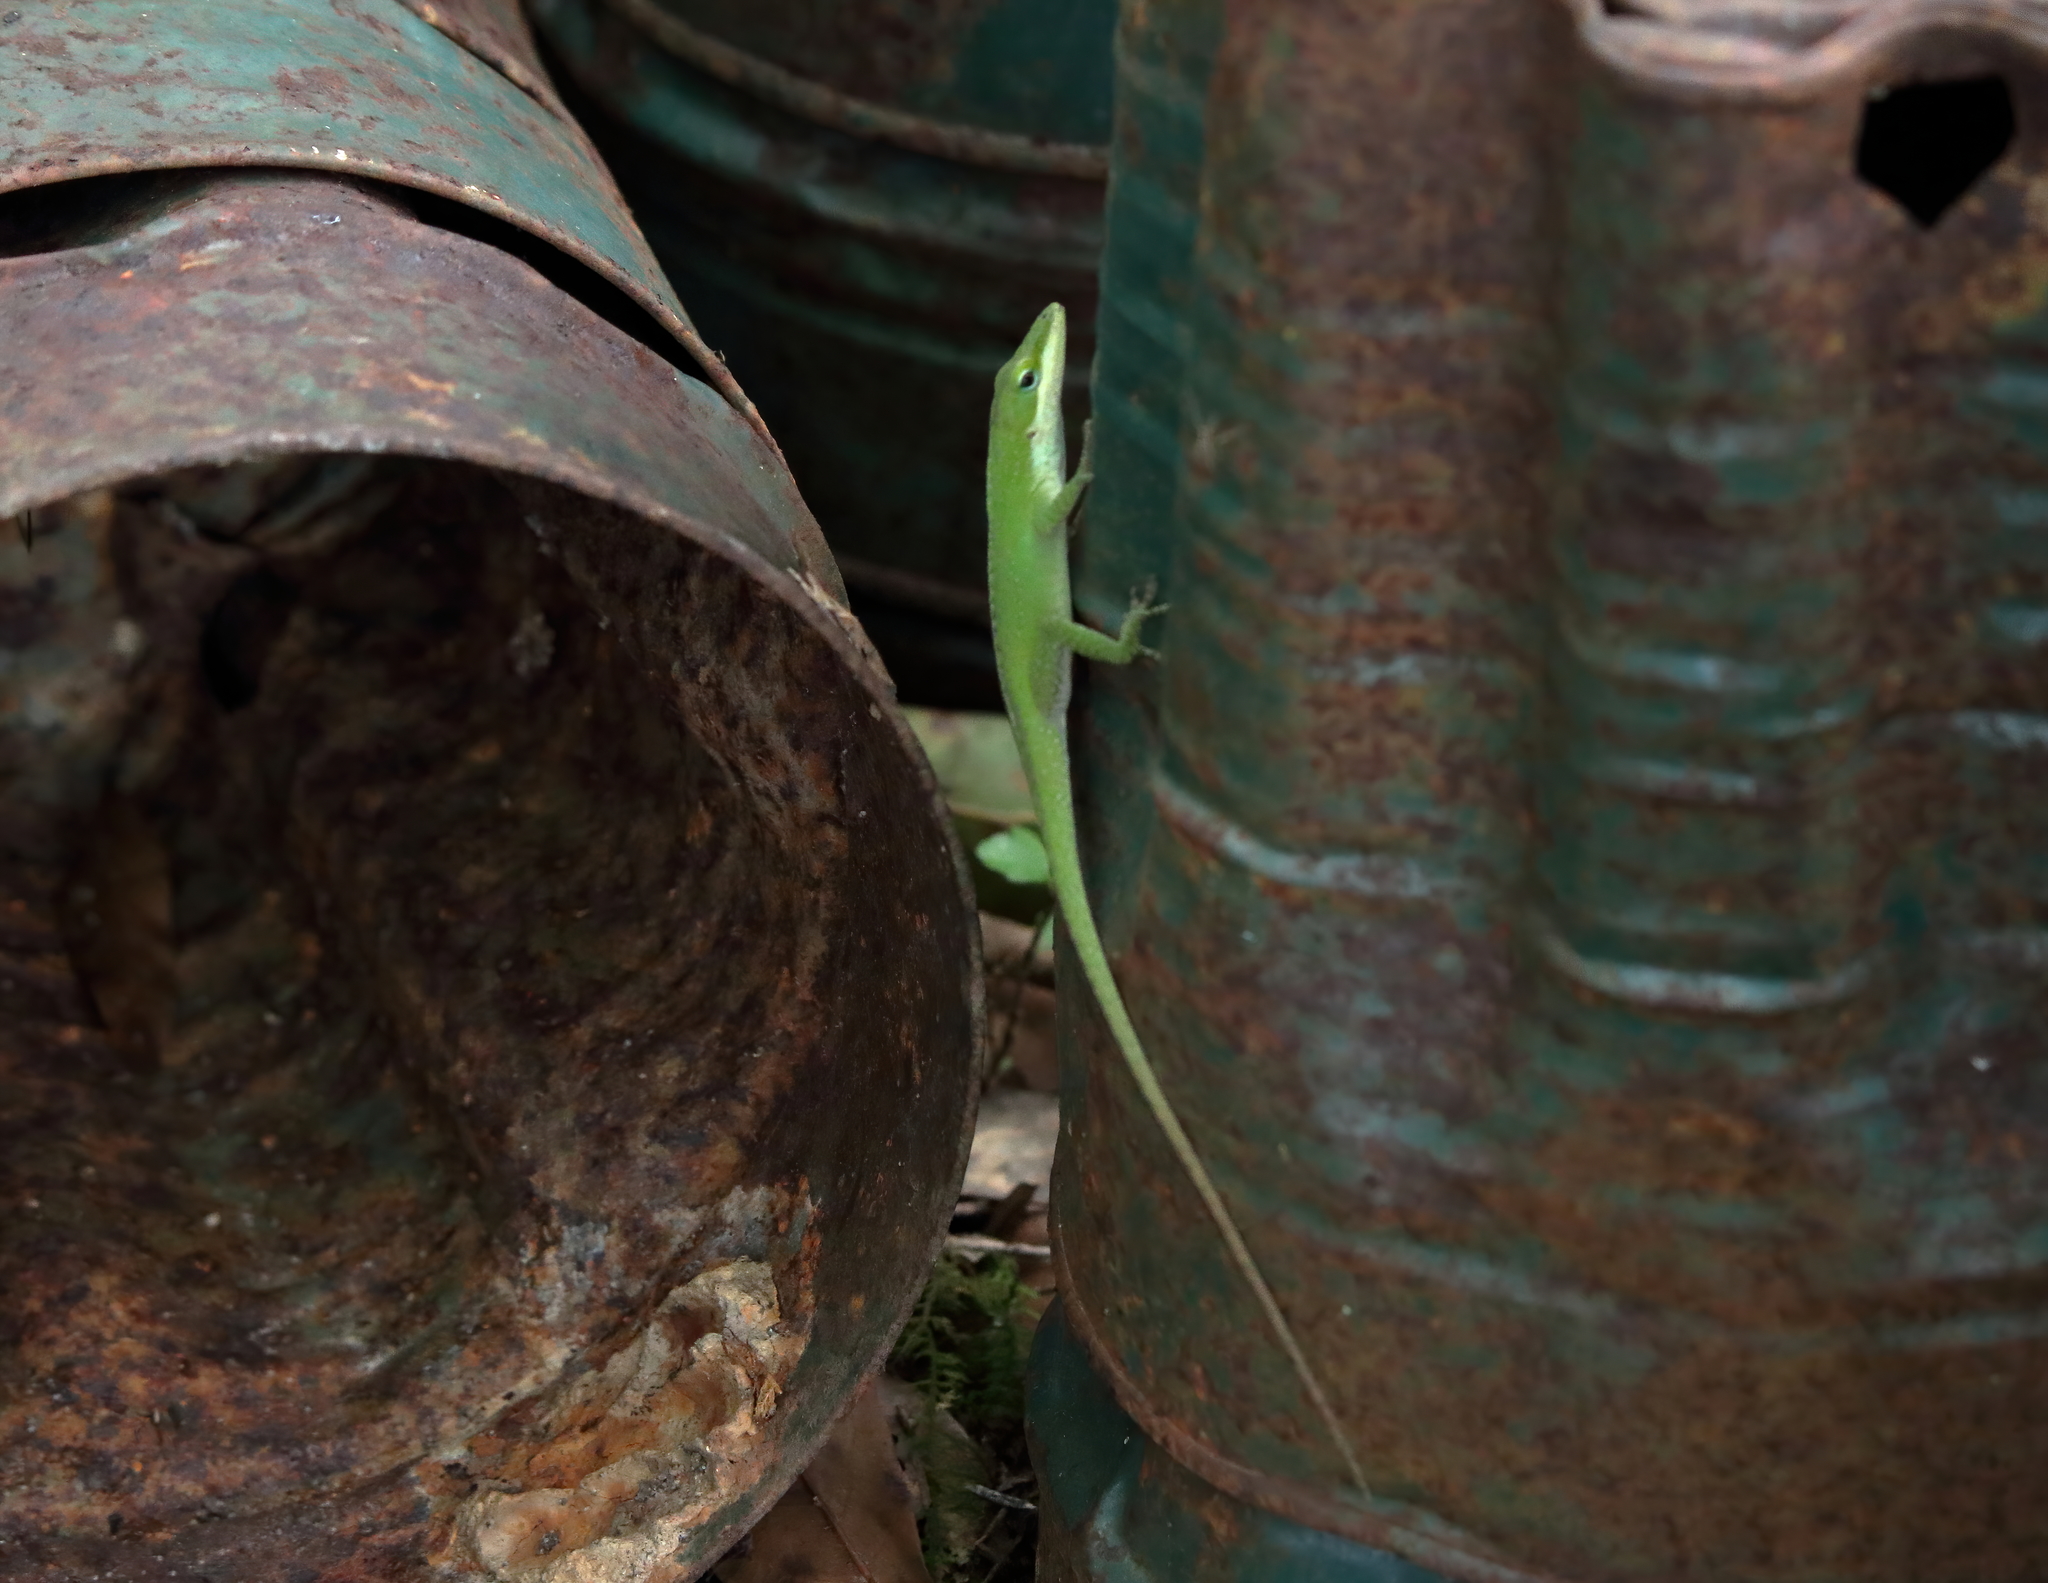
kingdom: Animalia
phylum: Chordata
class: Squamata
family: Dactyloidae
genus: Anolis
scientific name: Anolis carolinensis
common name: Green anole
